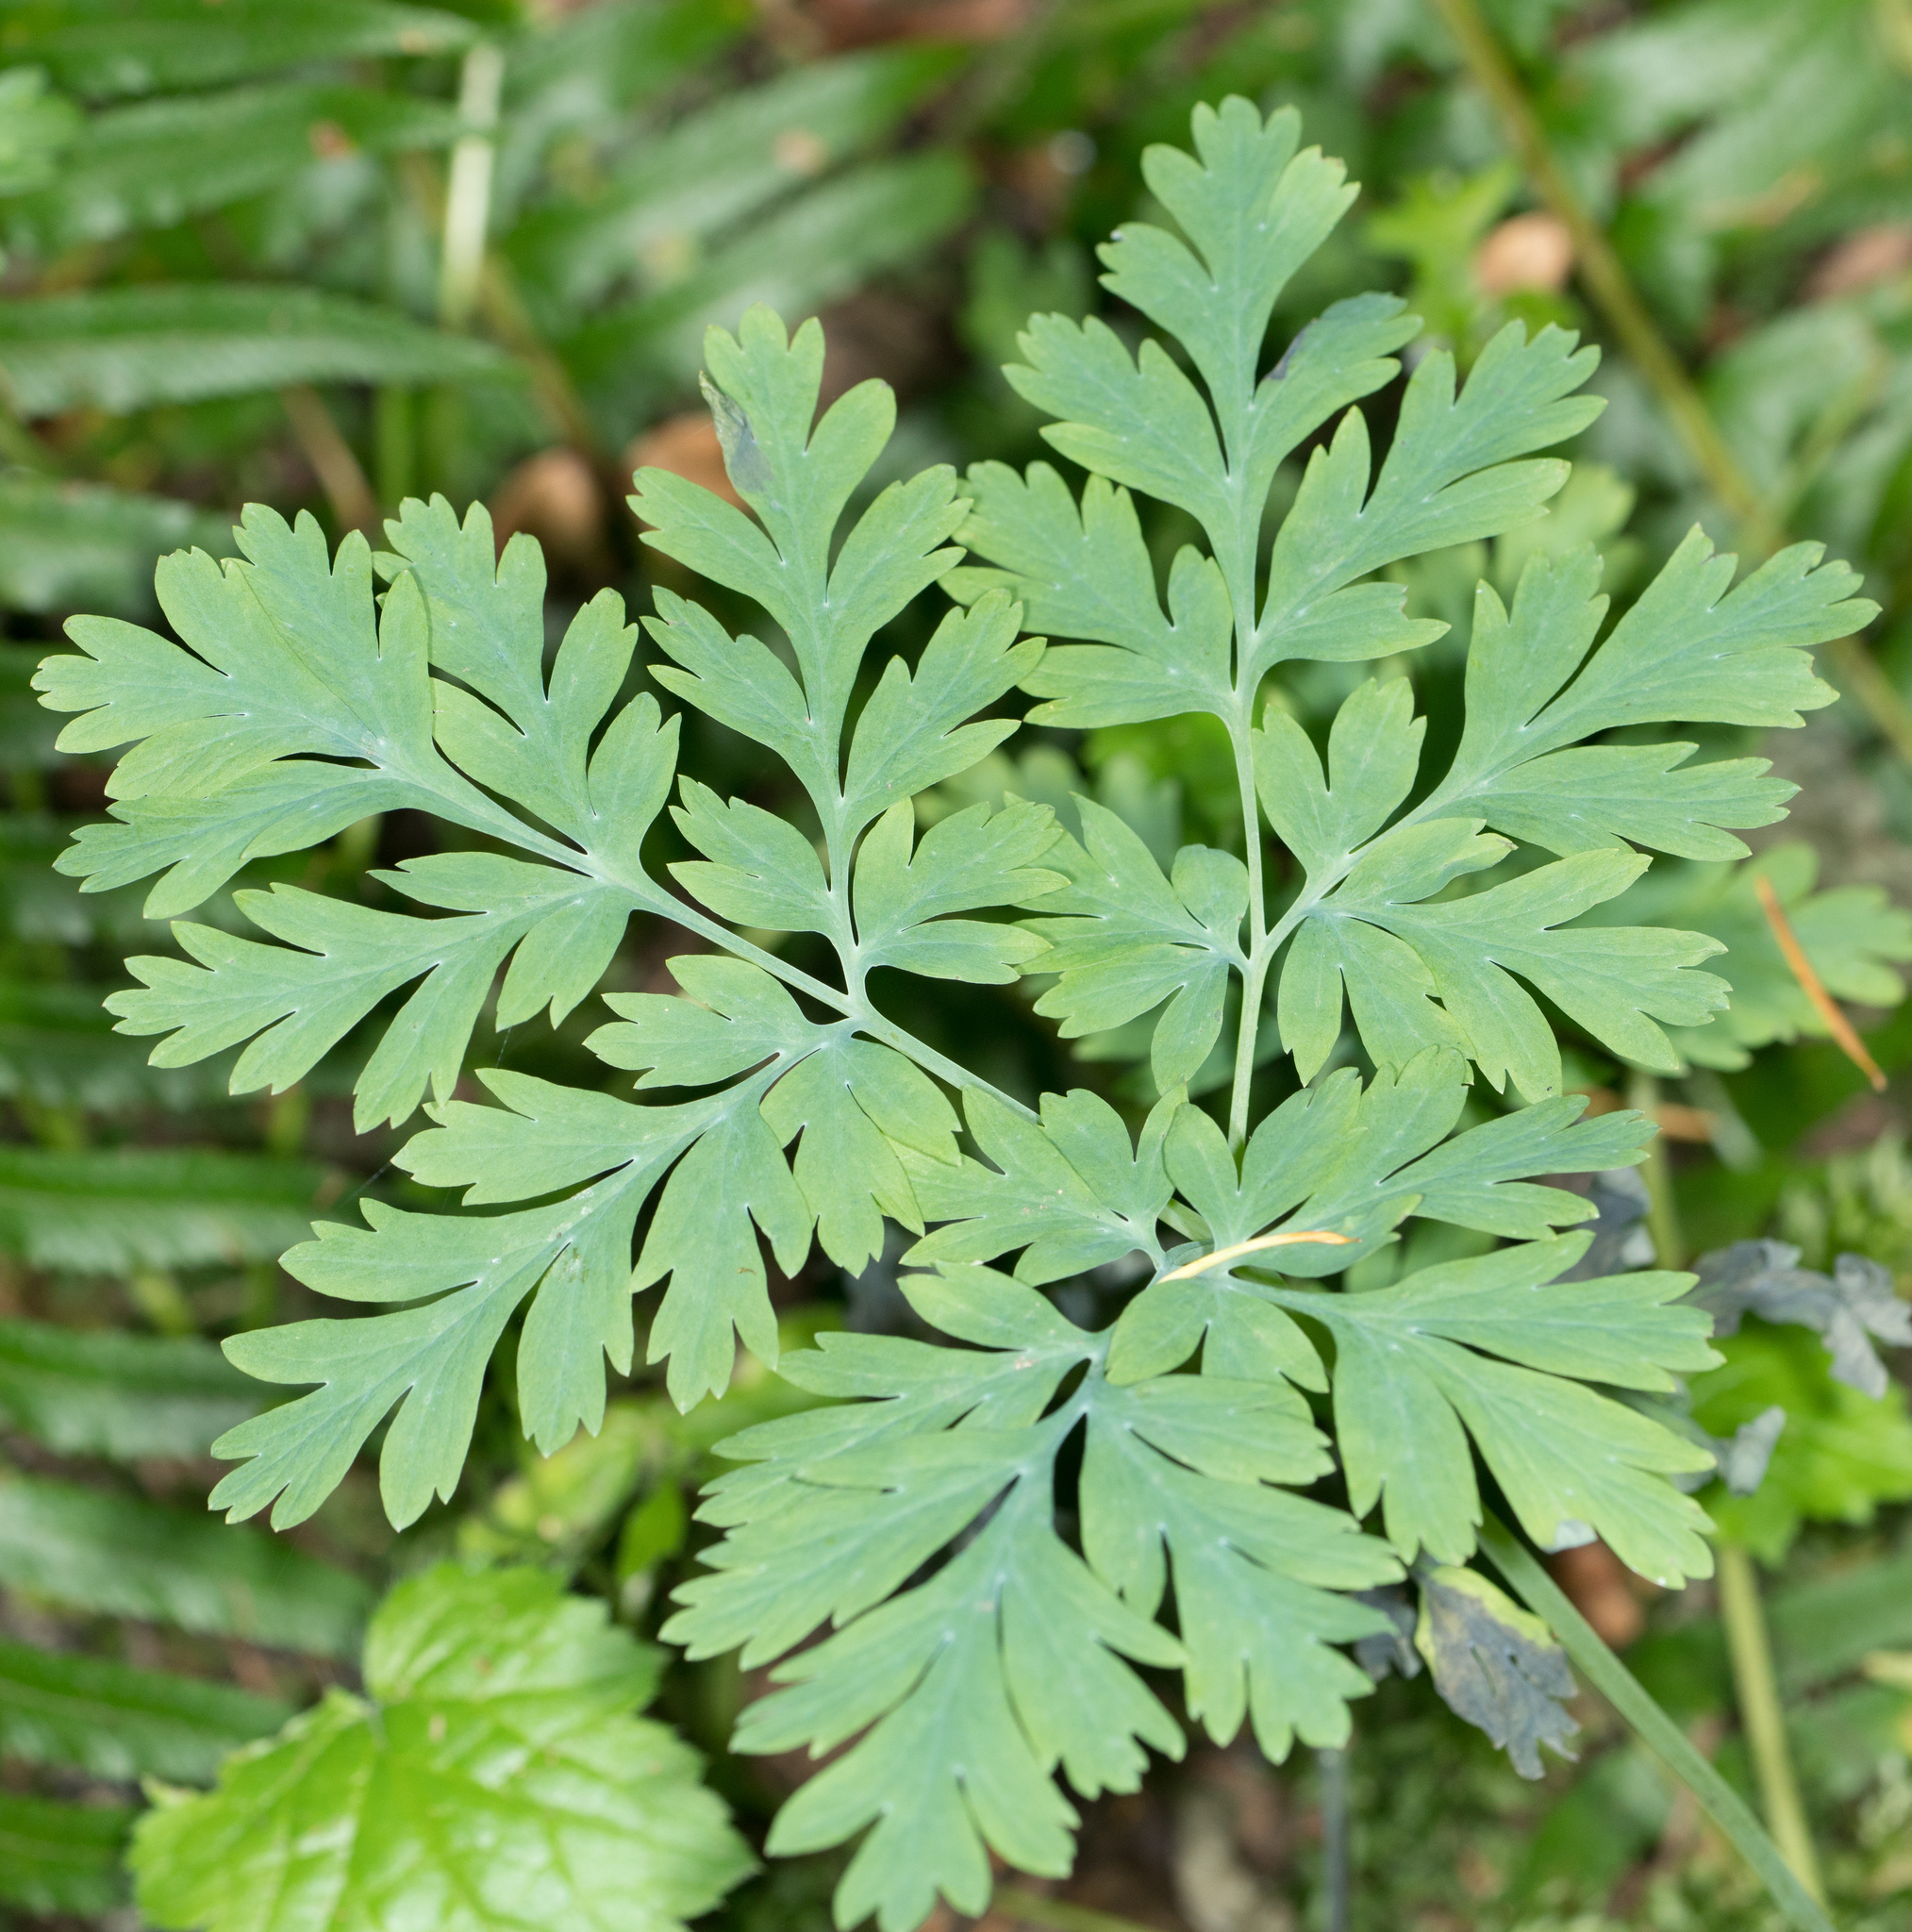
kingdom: Plantae
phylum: Tracheophyta
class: Magnoliopsida
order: Ranunculales
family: Papaveraceae
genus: Dicentra
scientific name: Dicentra formosa
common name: Bleeding-heart
